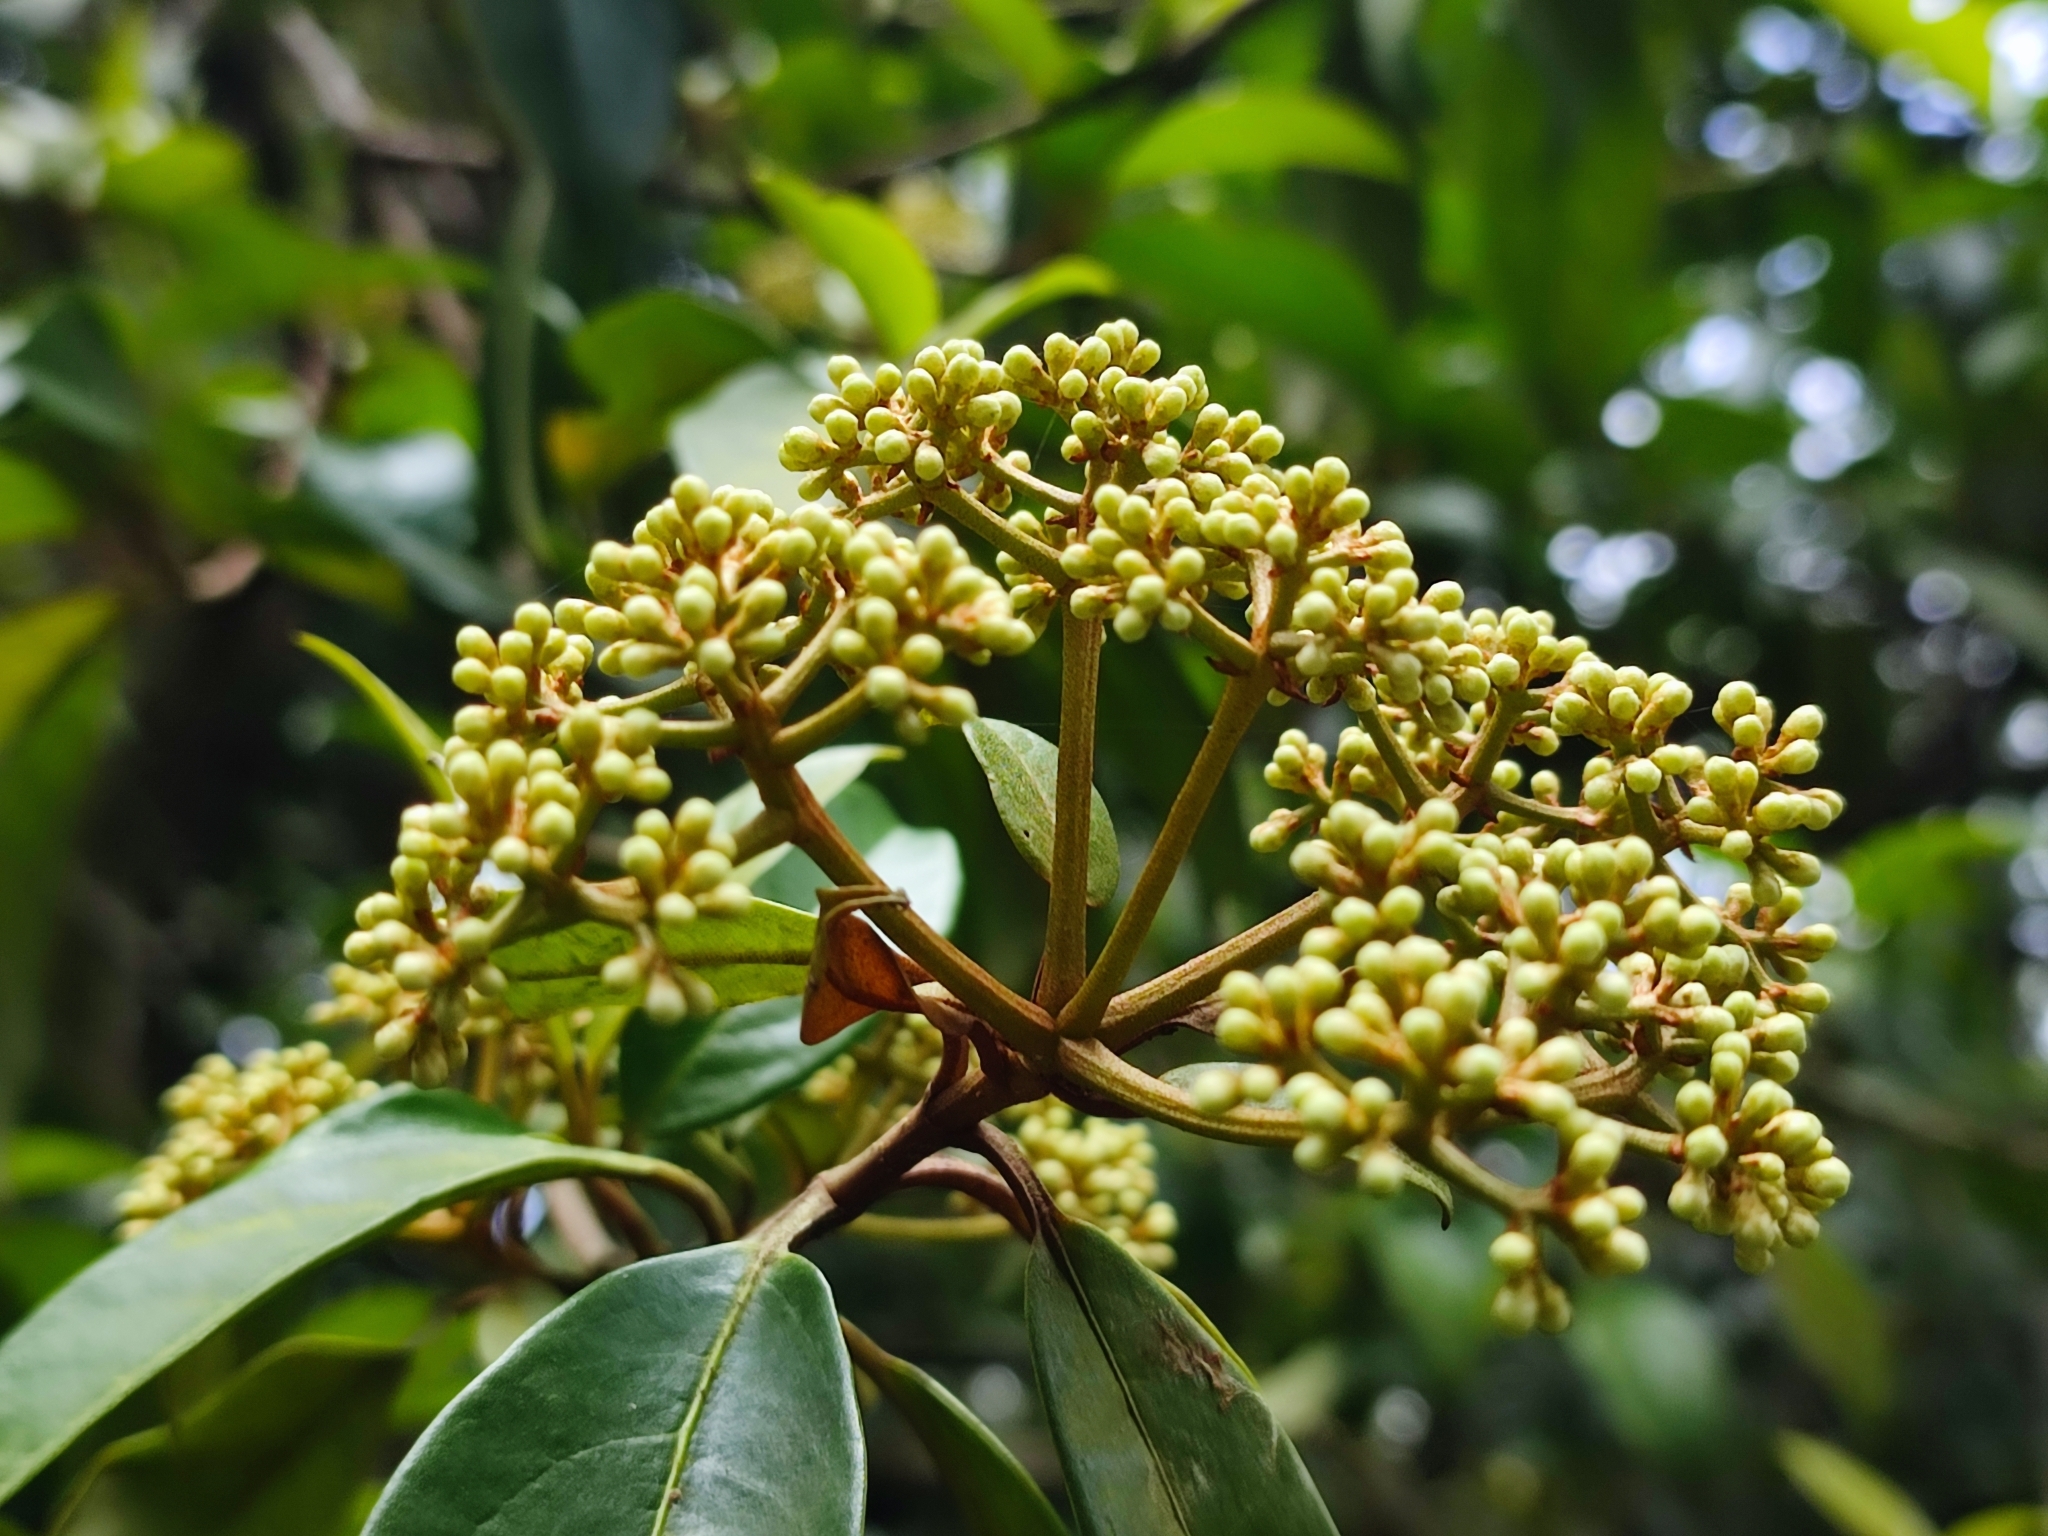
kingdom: Plantae
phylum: Tracheophyta
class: Magnoliopsida
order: Dipsacales
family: Viburnaceae
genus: Viburnum
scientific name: Viburnum punctatum
